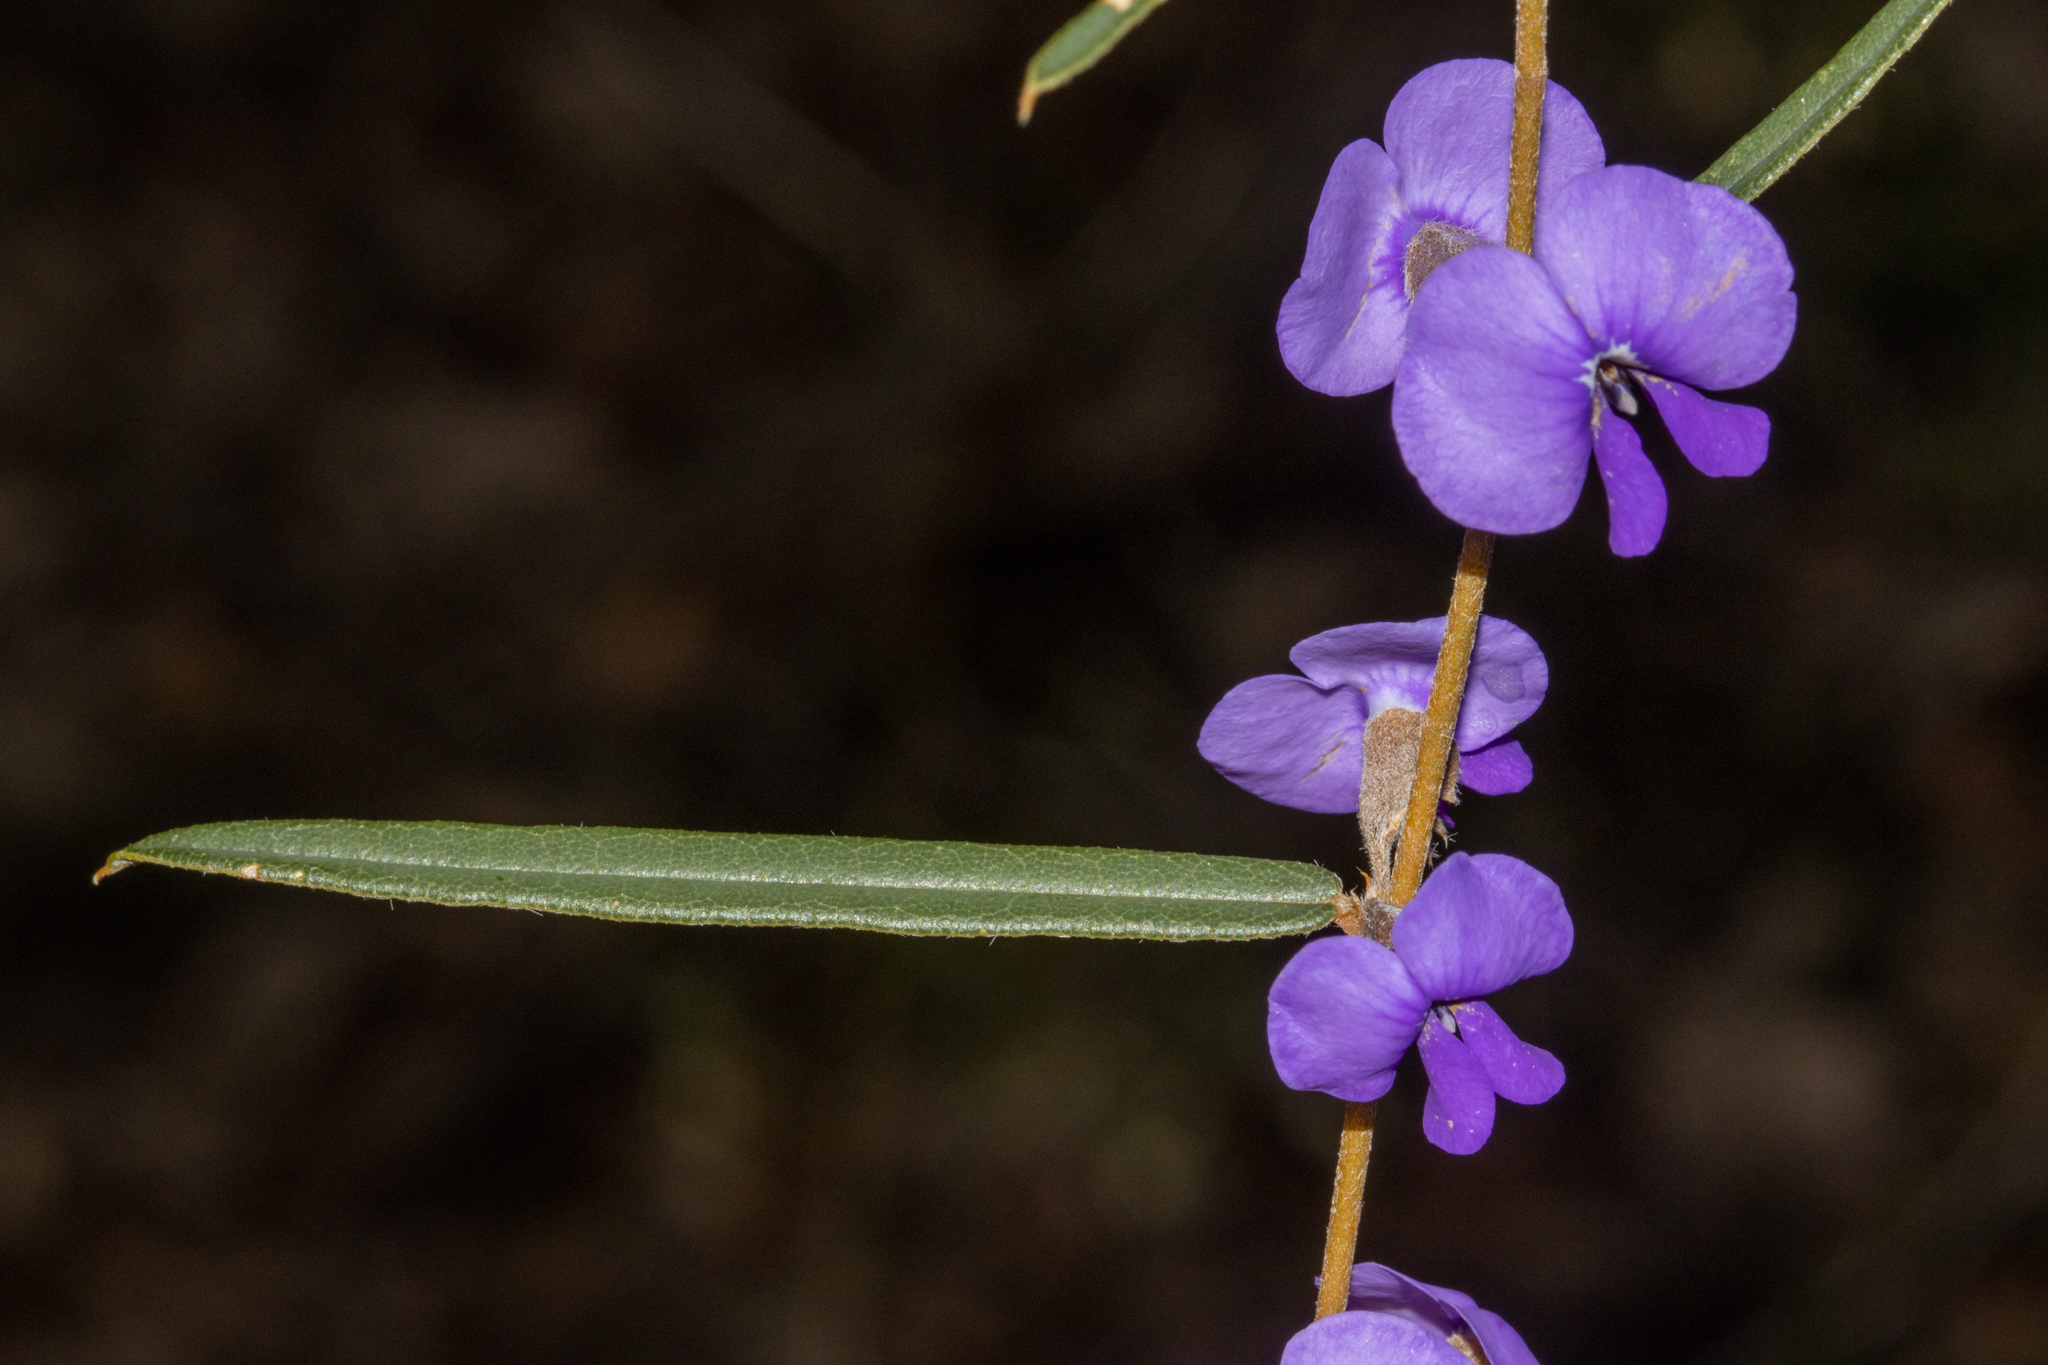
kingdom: Plantae
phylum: Tracheophyta
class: Magnoliopsida
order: Fabales
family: Fabaceae
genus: Hovea
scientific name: Hovea trisperma
